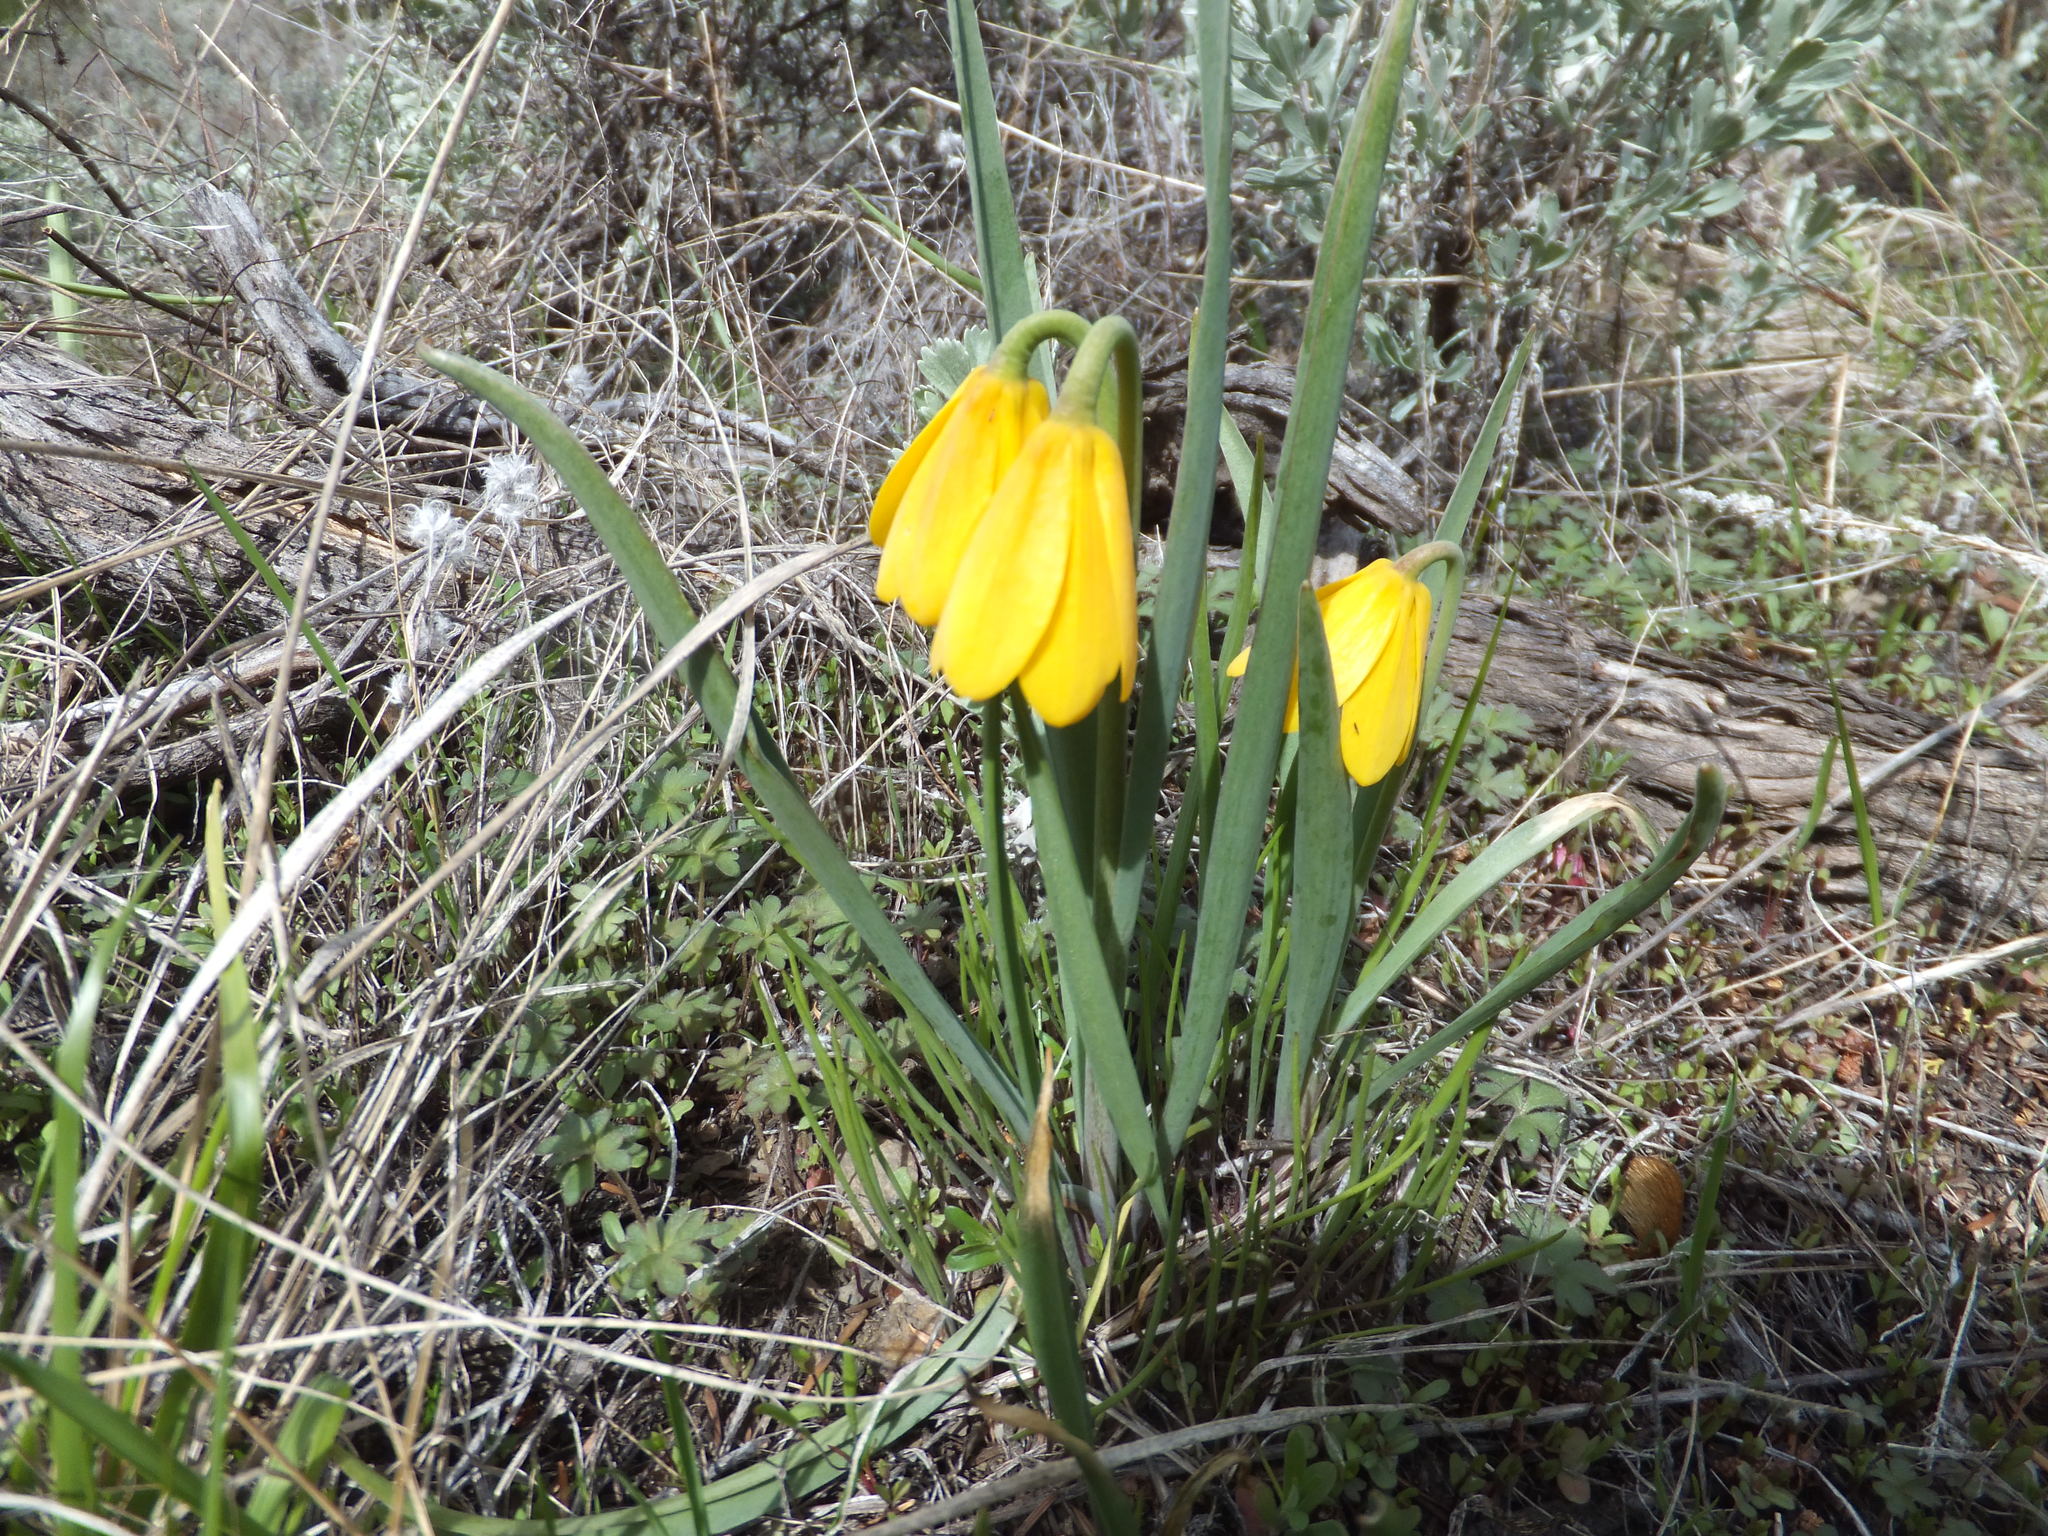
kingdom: Plantae
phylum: Tracheophyta
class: Liliopsida
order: Liliales
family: Liliaceae
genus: Fritillaria
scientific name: Fritillaria pudica
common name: Yellow fritillary
